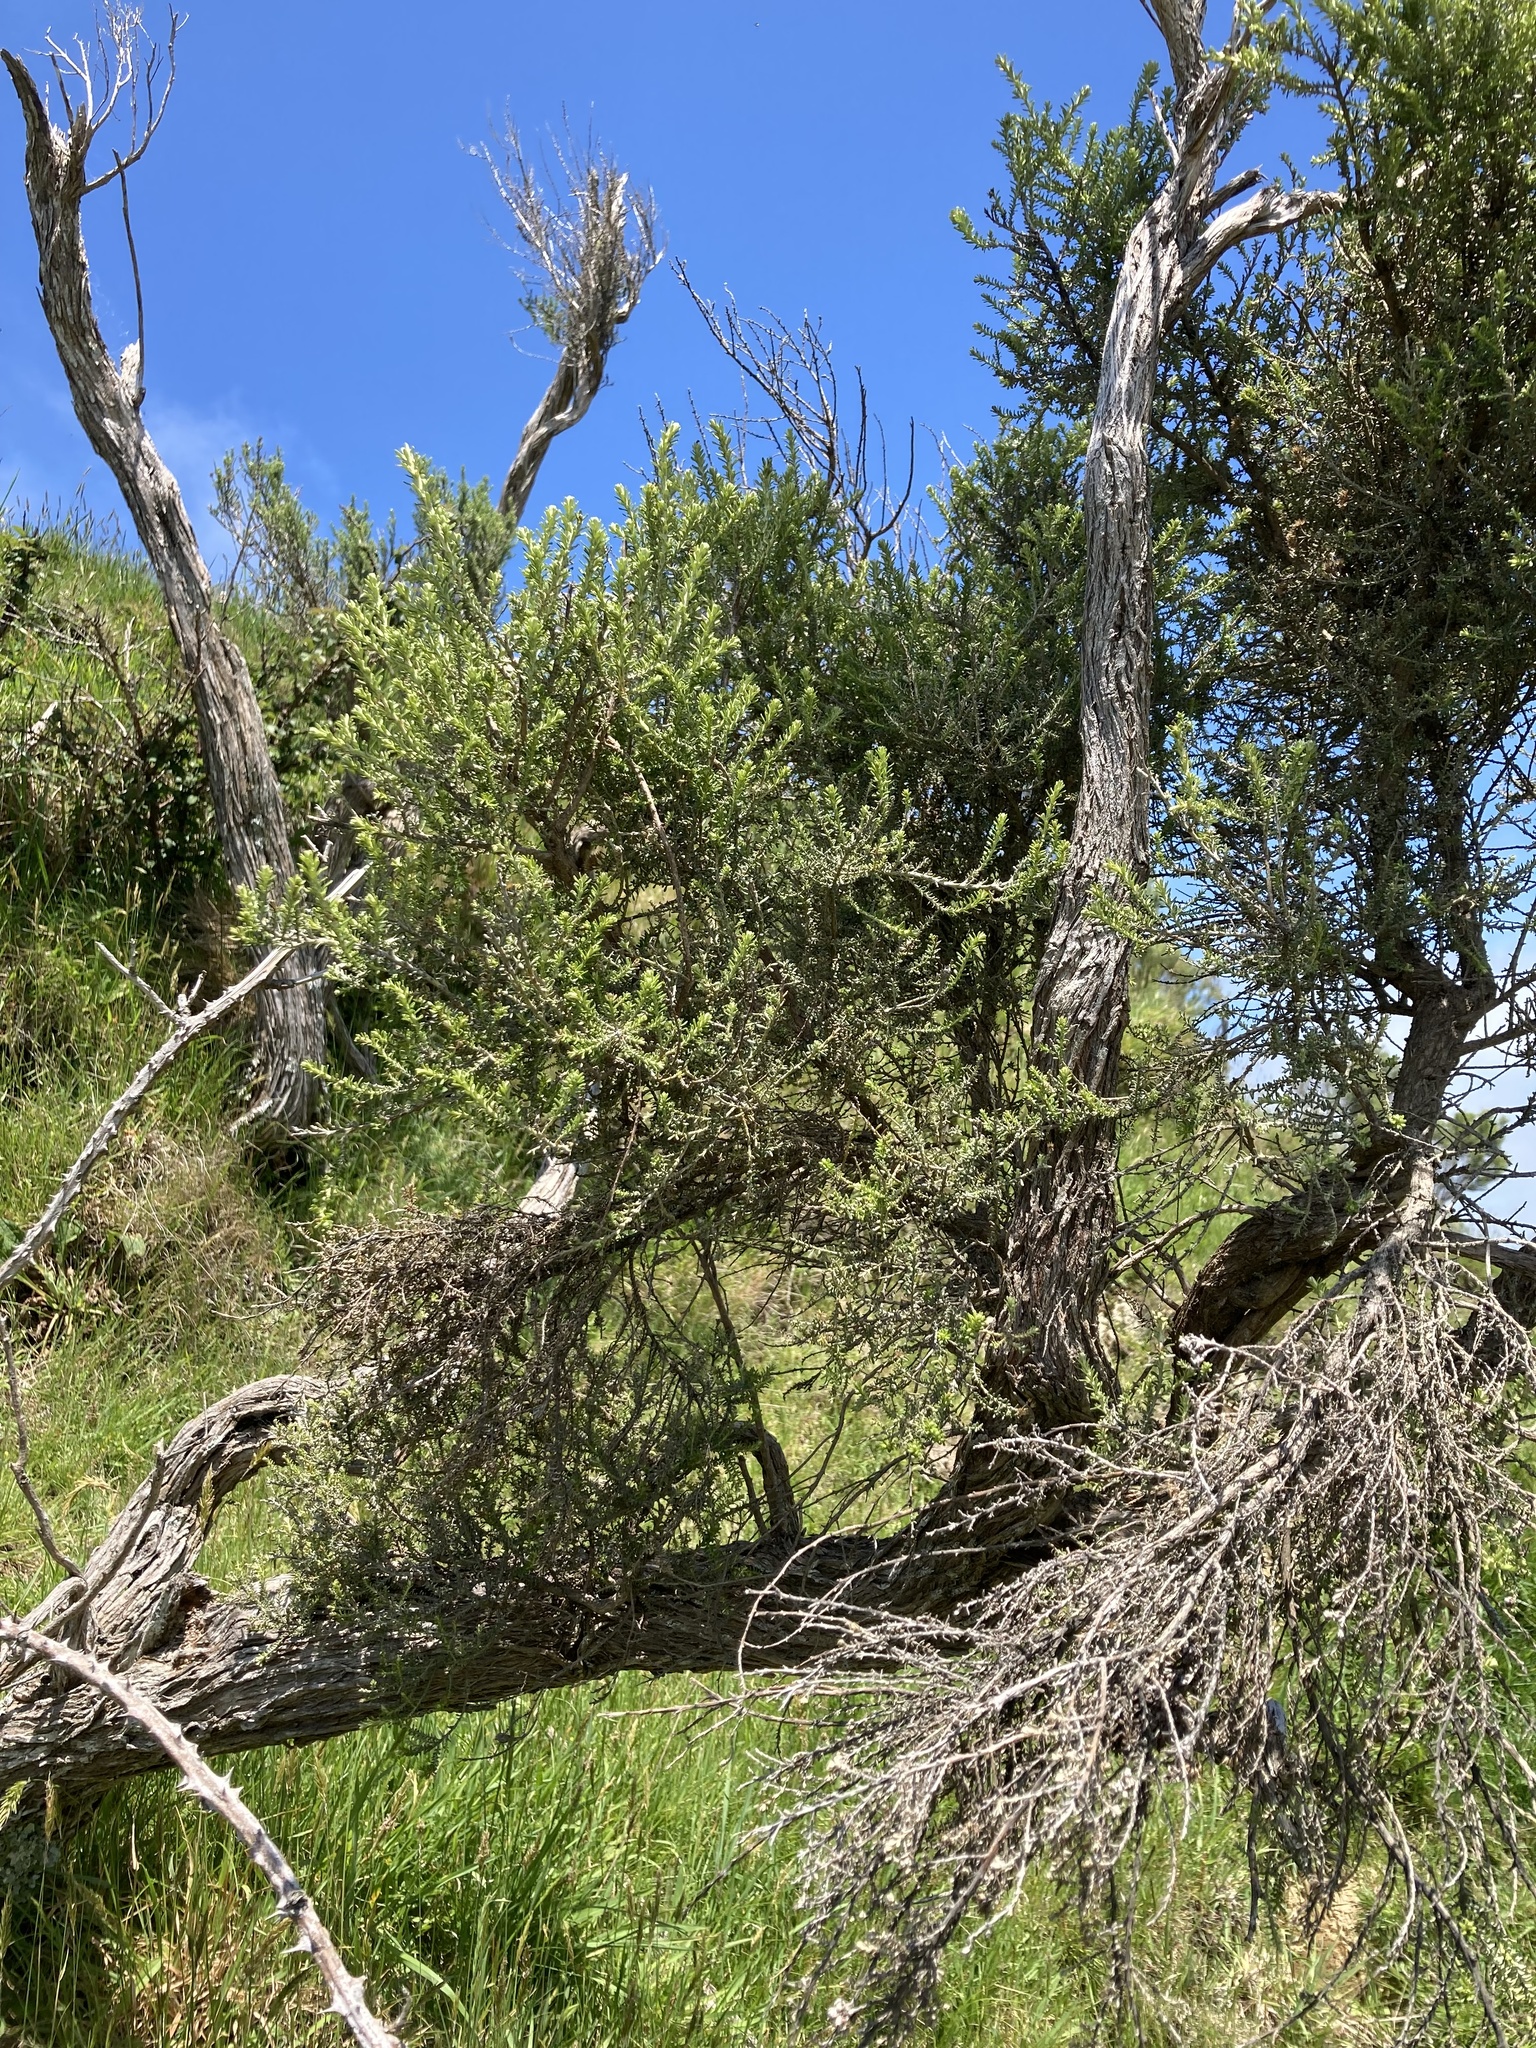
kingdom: Plantae
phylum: Tracheophyta
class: Magnoliopsida
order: Asterales
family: Asteraceae
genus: Ozothamnus
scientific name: Ozothamnus leptophyllus
